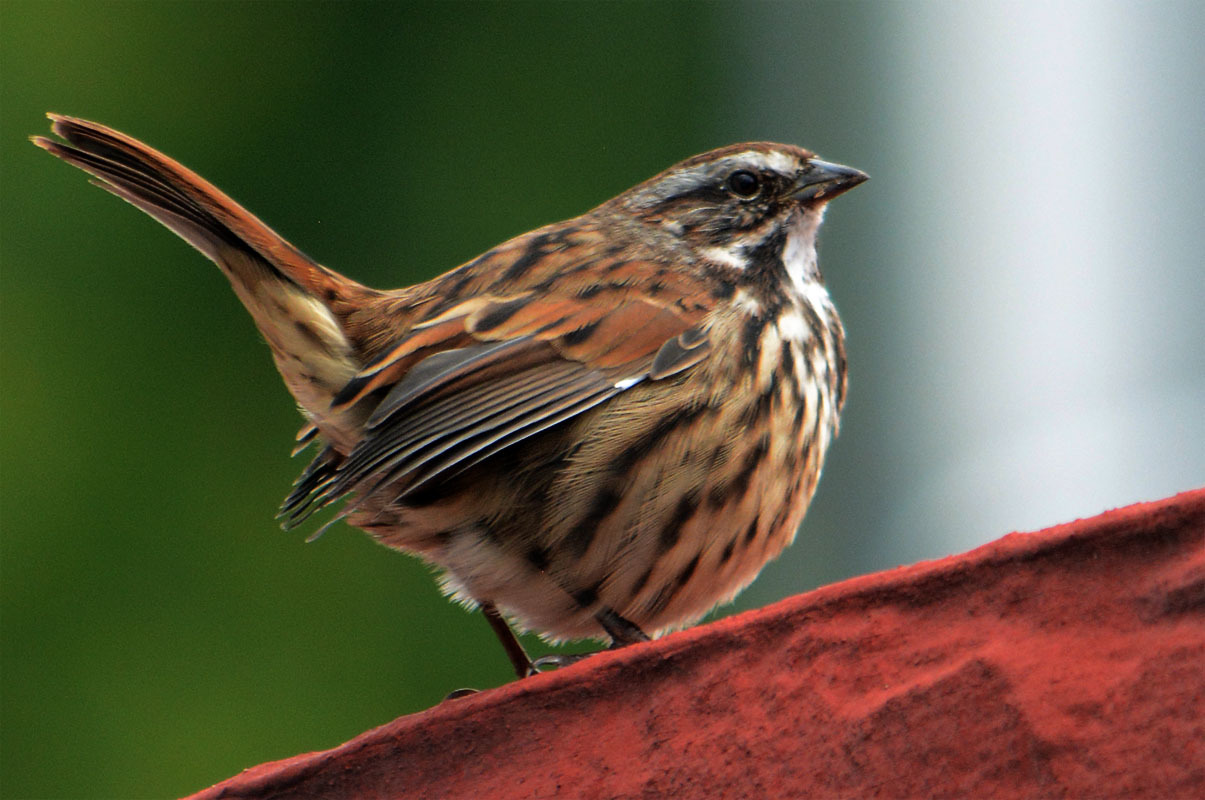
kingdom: Animalia
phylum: Chordata
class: Aves
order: Passeriformes
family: Passerellidae
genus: Melospiza
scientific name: Melospiza melodia
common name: Song sparrow
